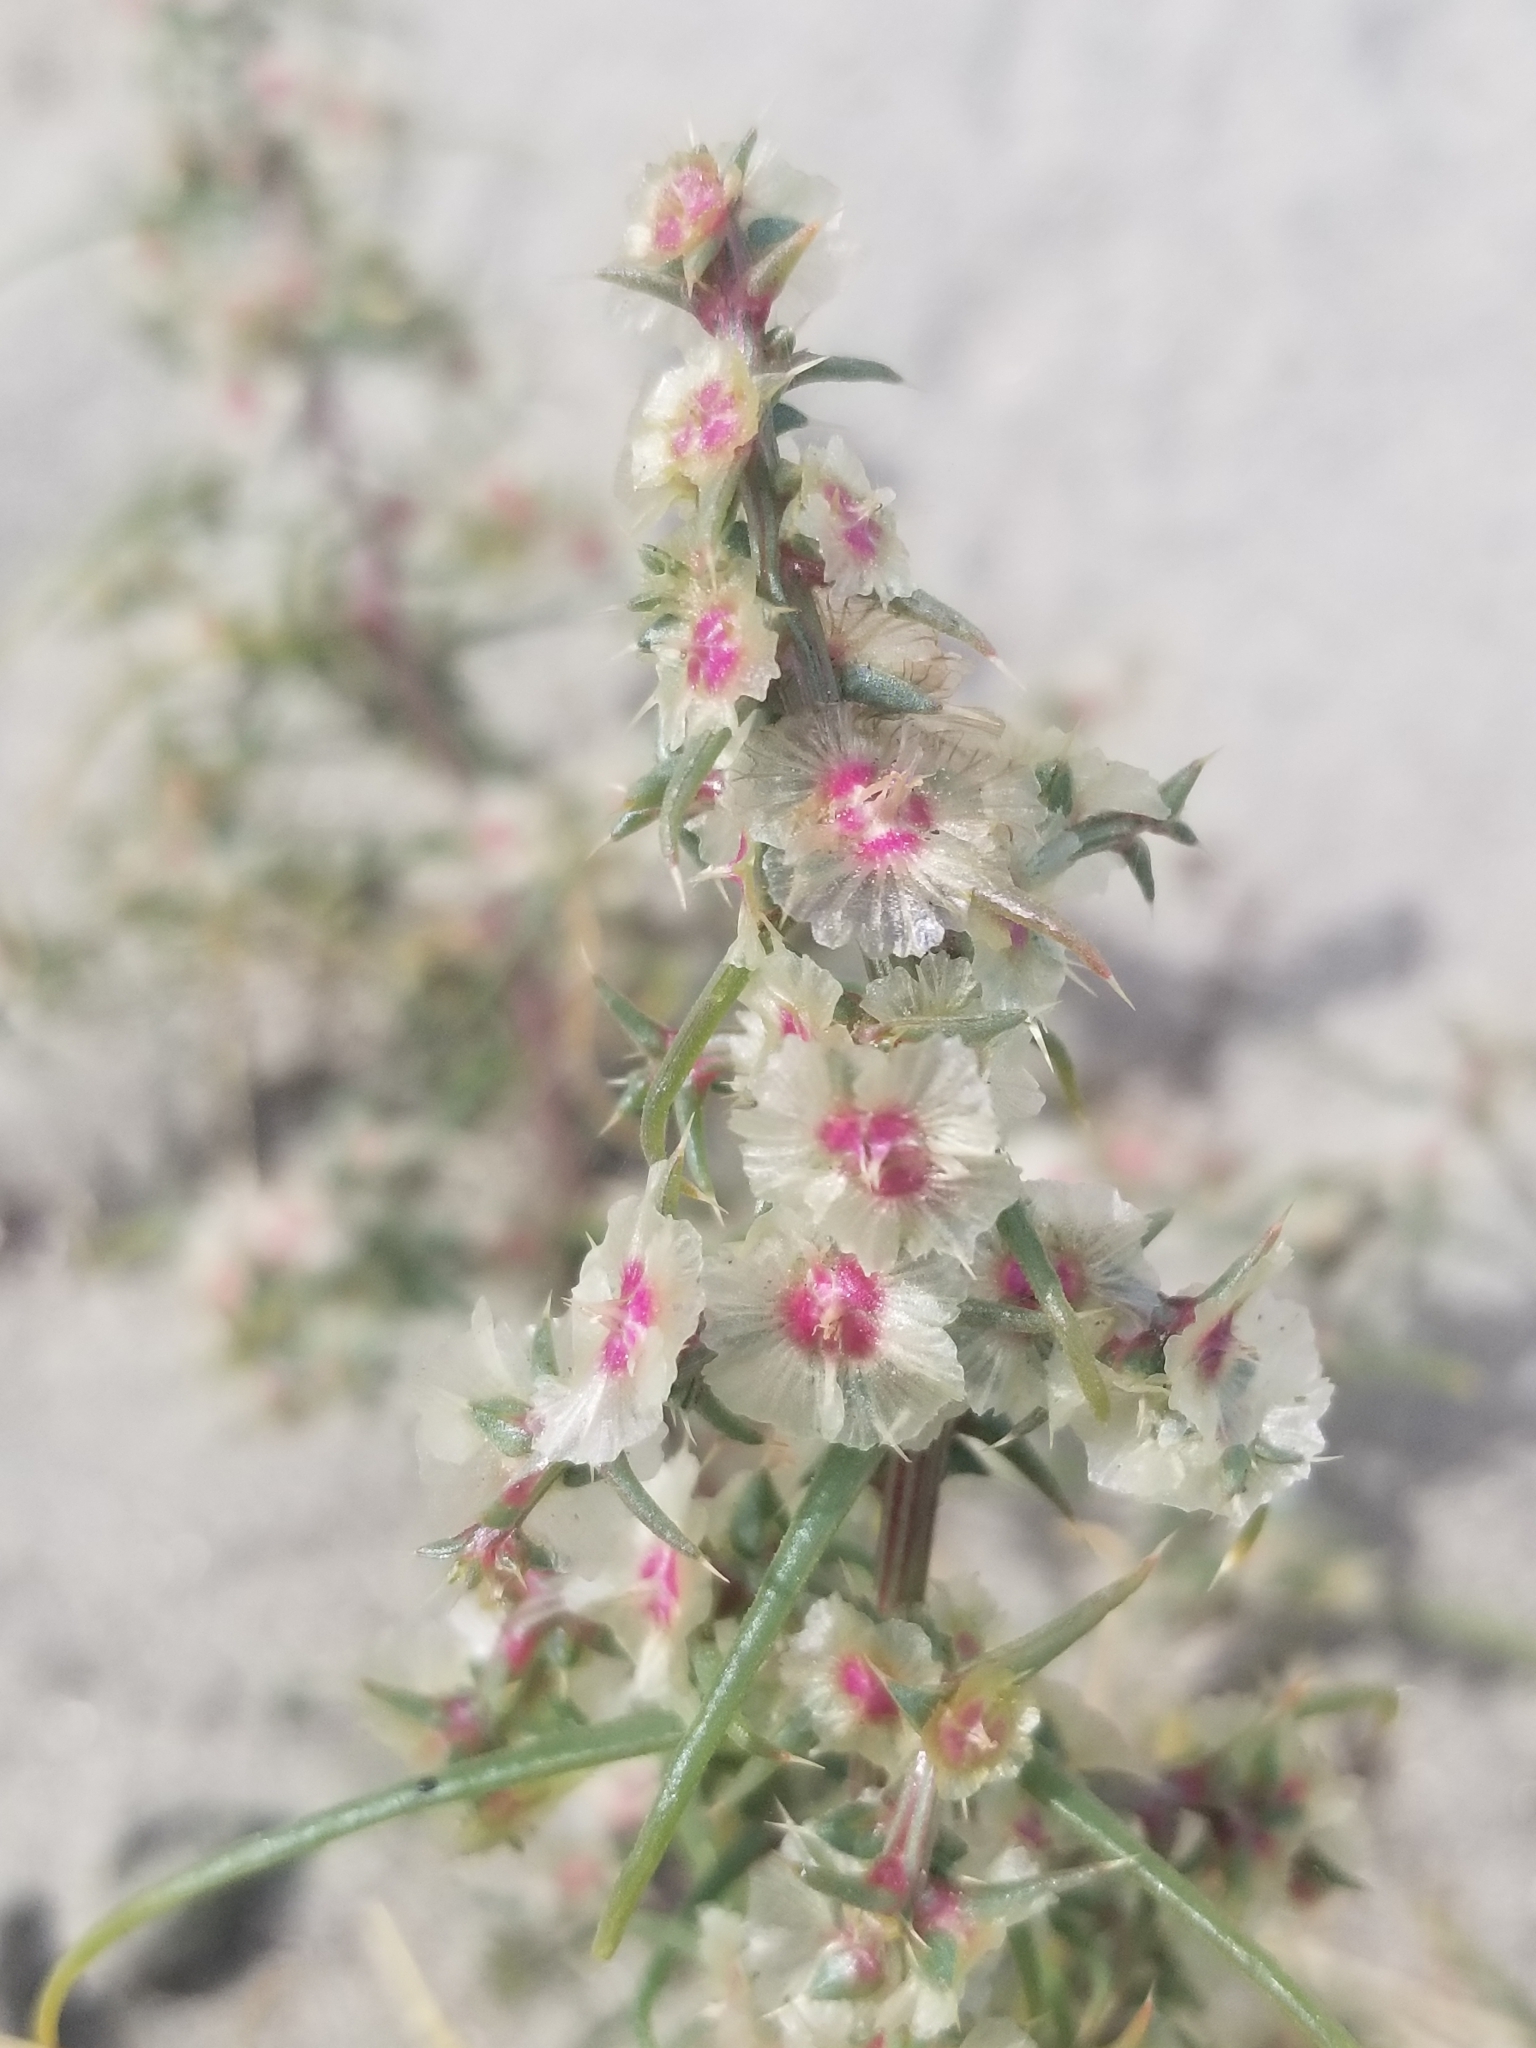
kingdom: Plantae
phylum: Tracheophyta
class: Magnoliopsida
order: Caryophyllales
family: Amaranthaceae
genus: Salsola
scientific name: Salsola tragus
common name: Prickly russian thistle
